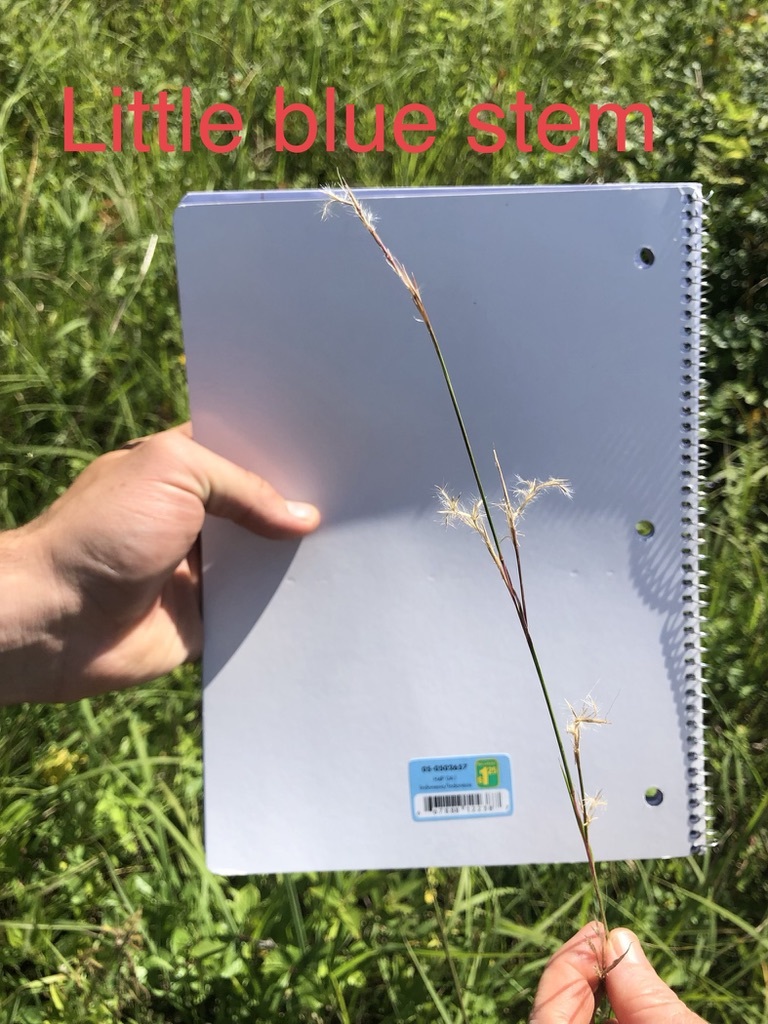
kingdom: Plantae
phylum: Tracheophyta
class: Liliopsida
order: Poales
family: Poaceae
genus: Schizachyrium
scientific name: Schizachyrium scoparium
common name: Little bluestem
